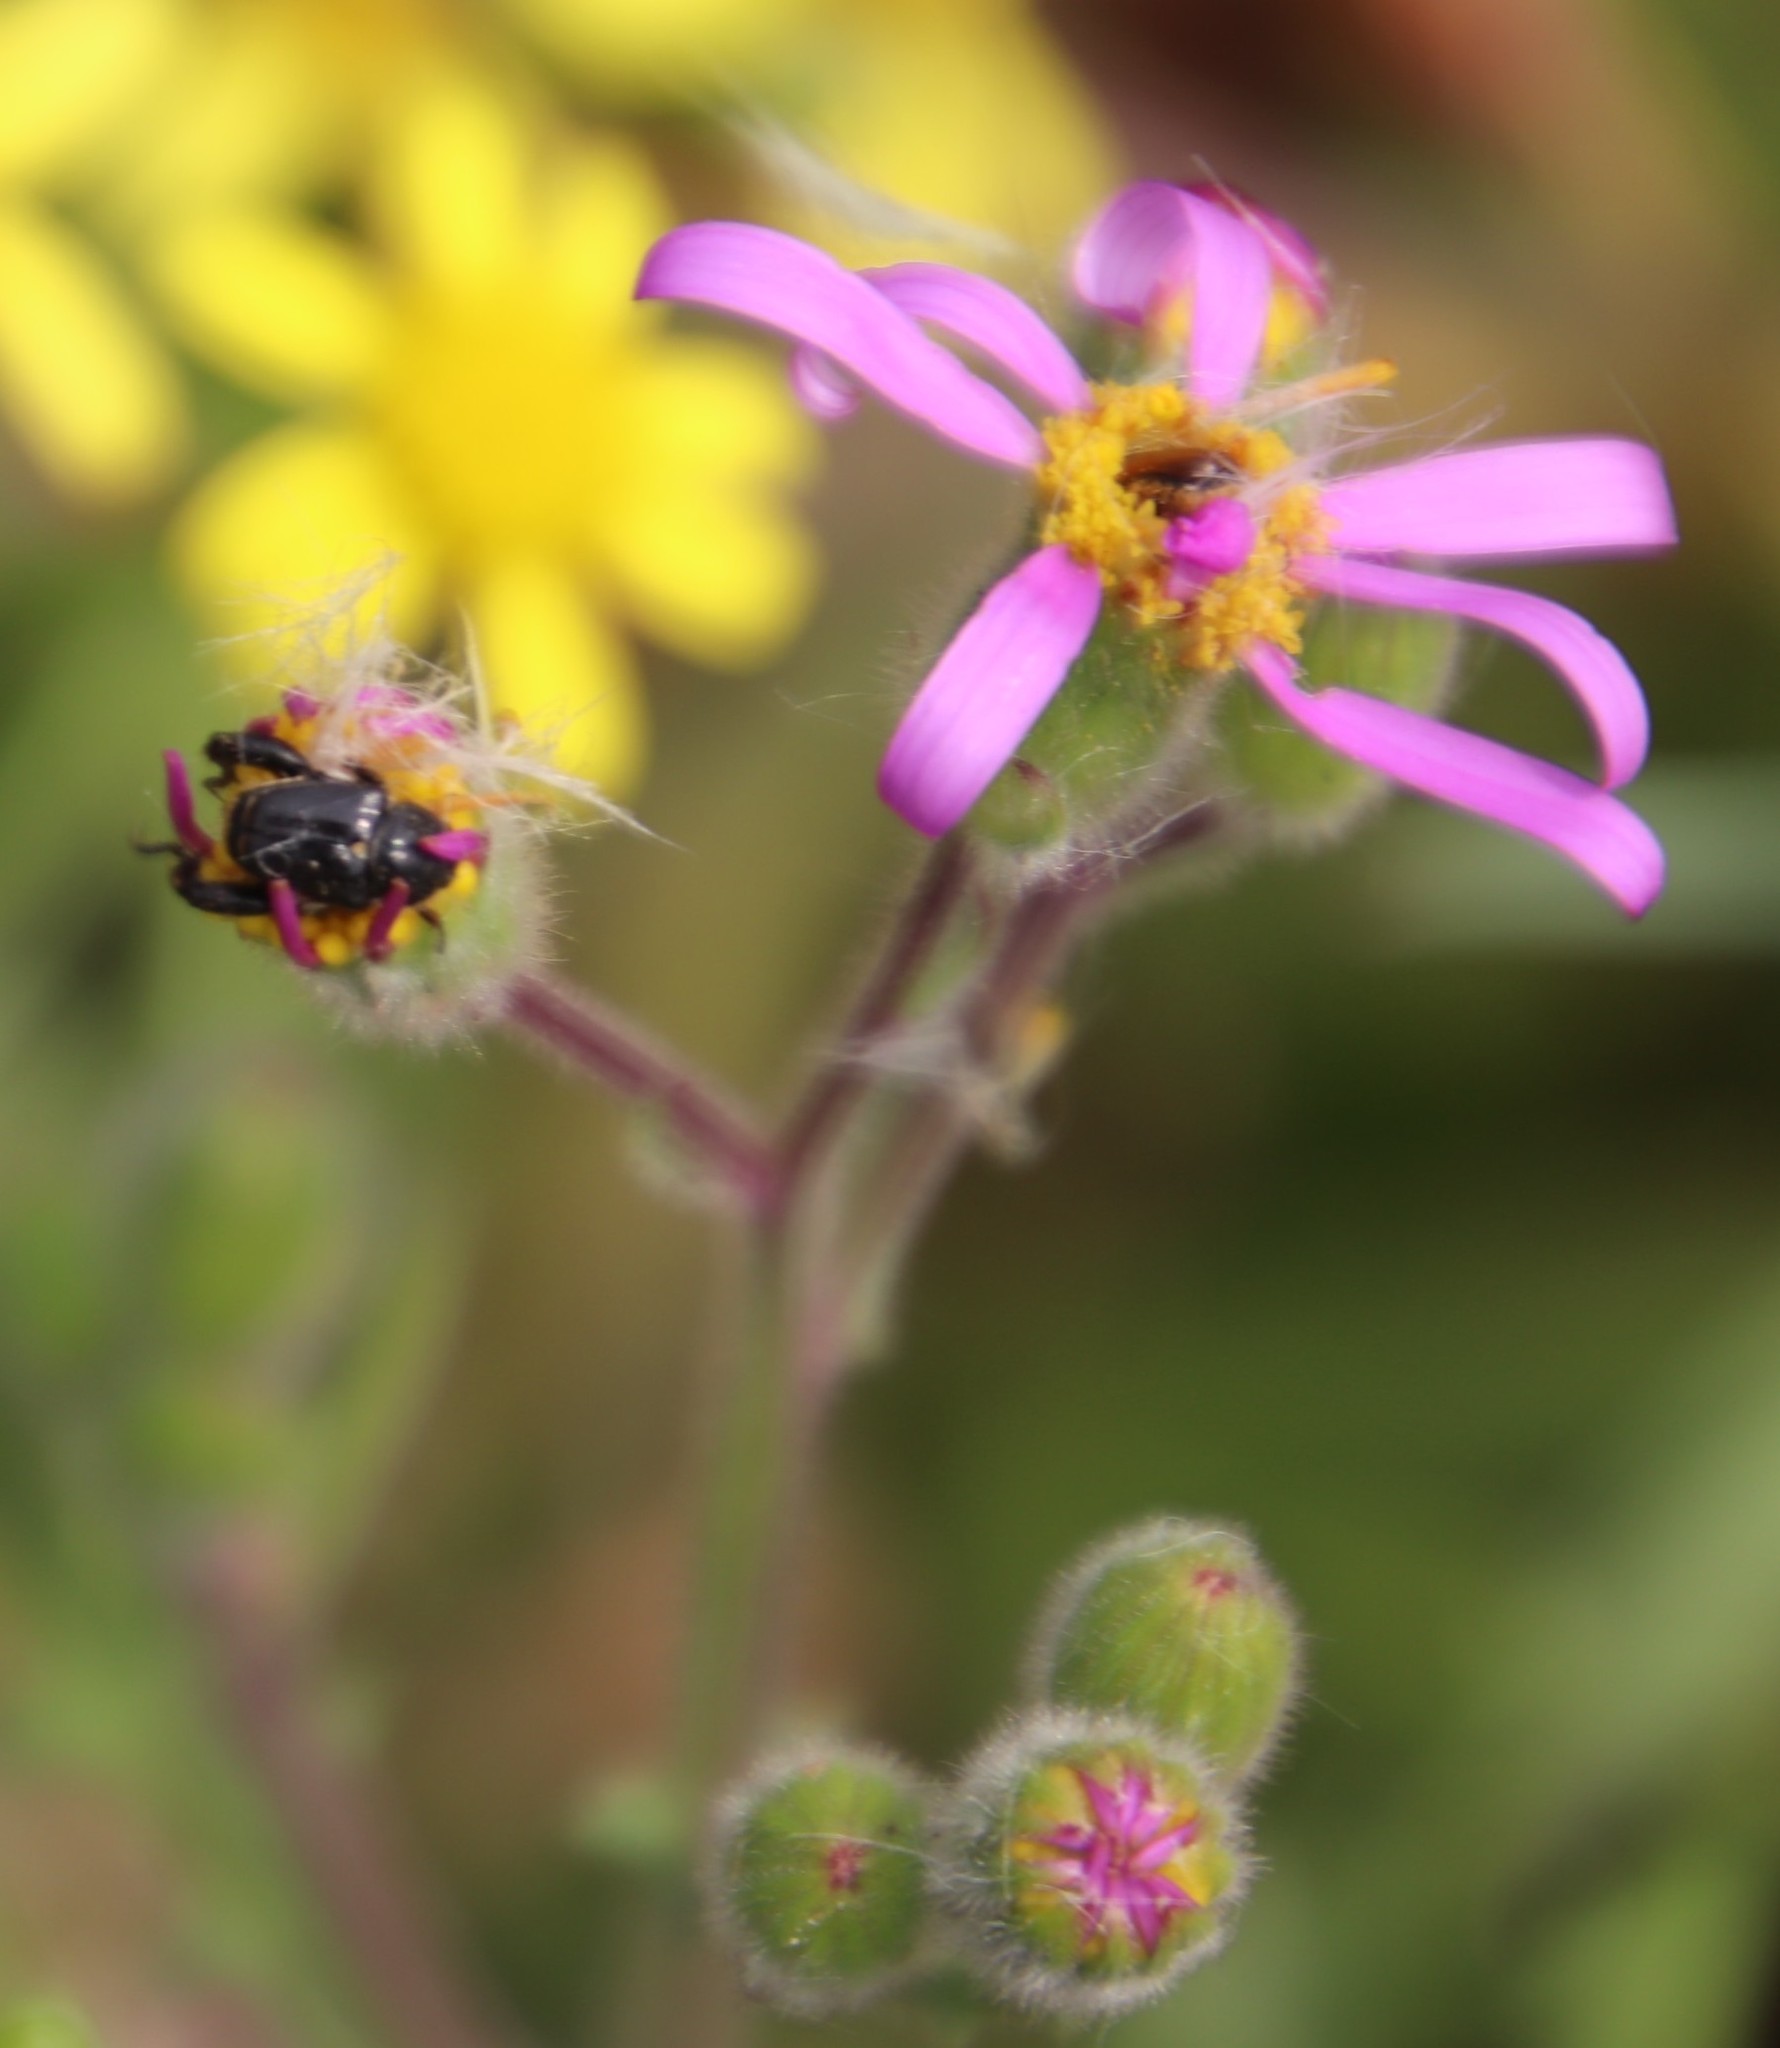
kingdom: Plantae
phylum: Tracheophyta
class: Magnoliopsida
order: Asterales
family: Asteraceae
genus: Senecio
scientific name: Senecio arenarius
